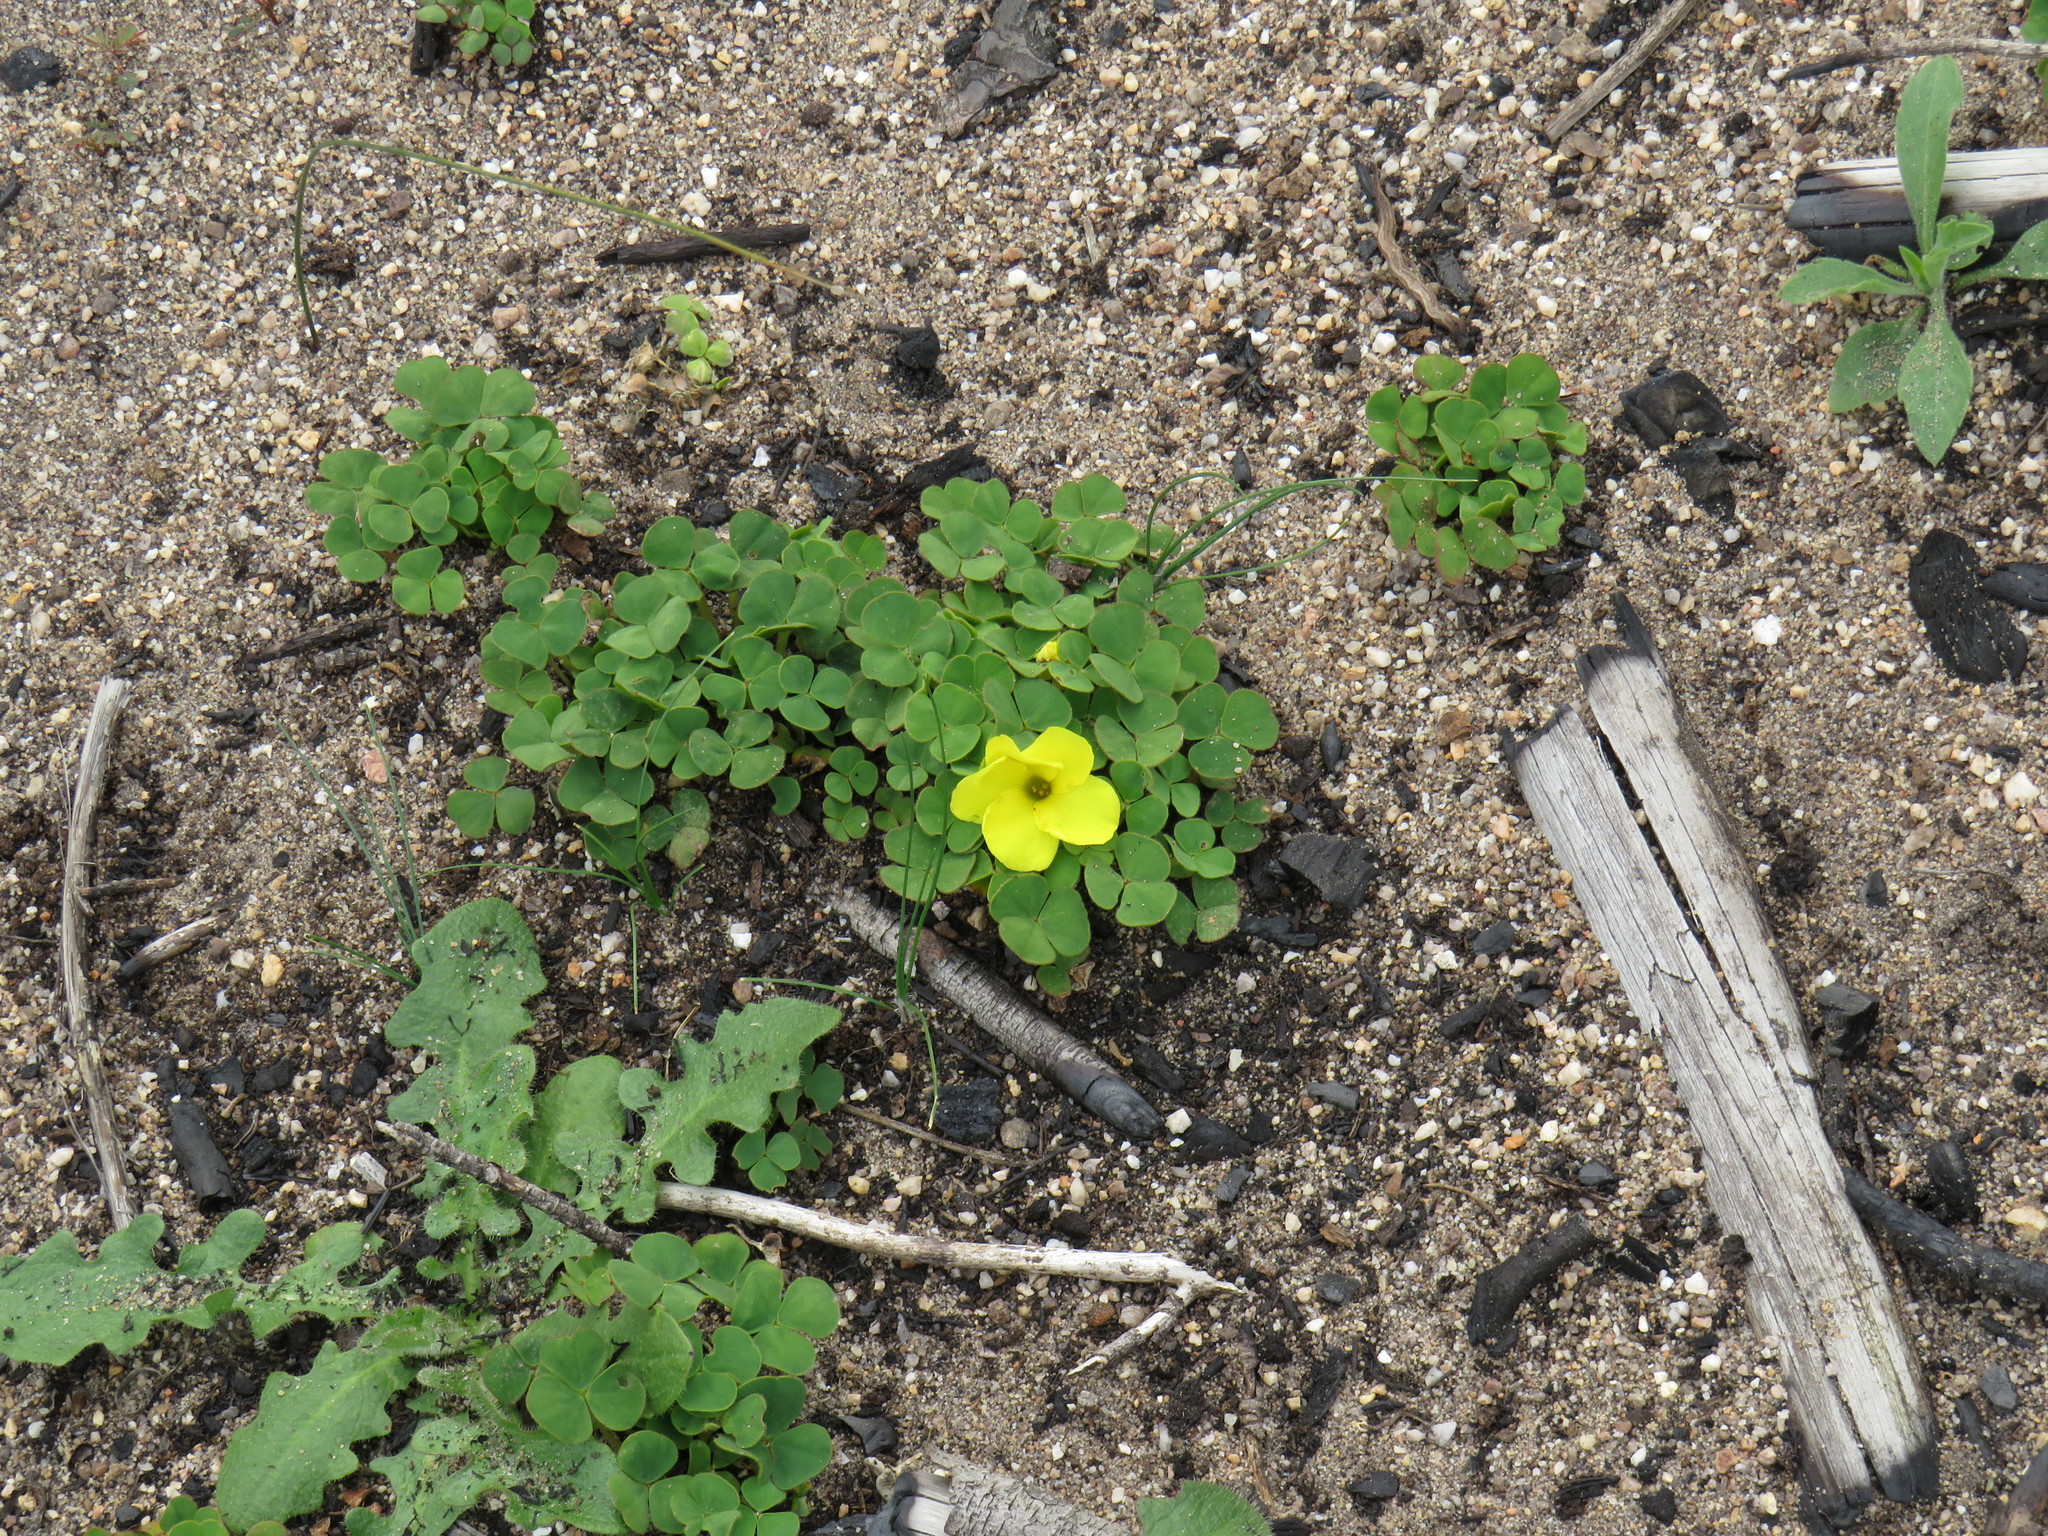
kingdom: Plantae
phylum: Tracheophyta
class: Magnoliopsida
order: Oxalidales
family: Oxalidaceae
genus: Oxalis
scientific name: Oxalis luteola
